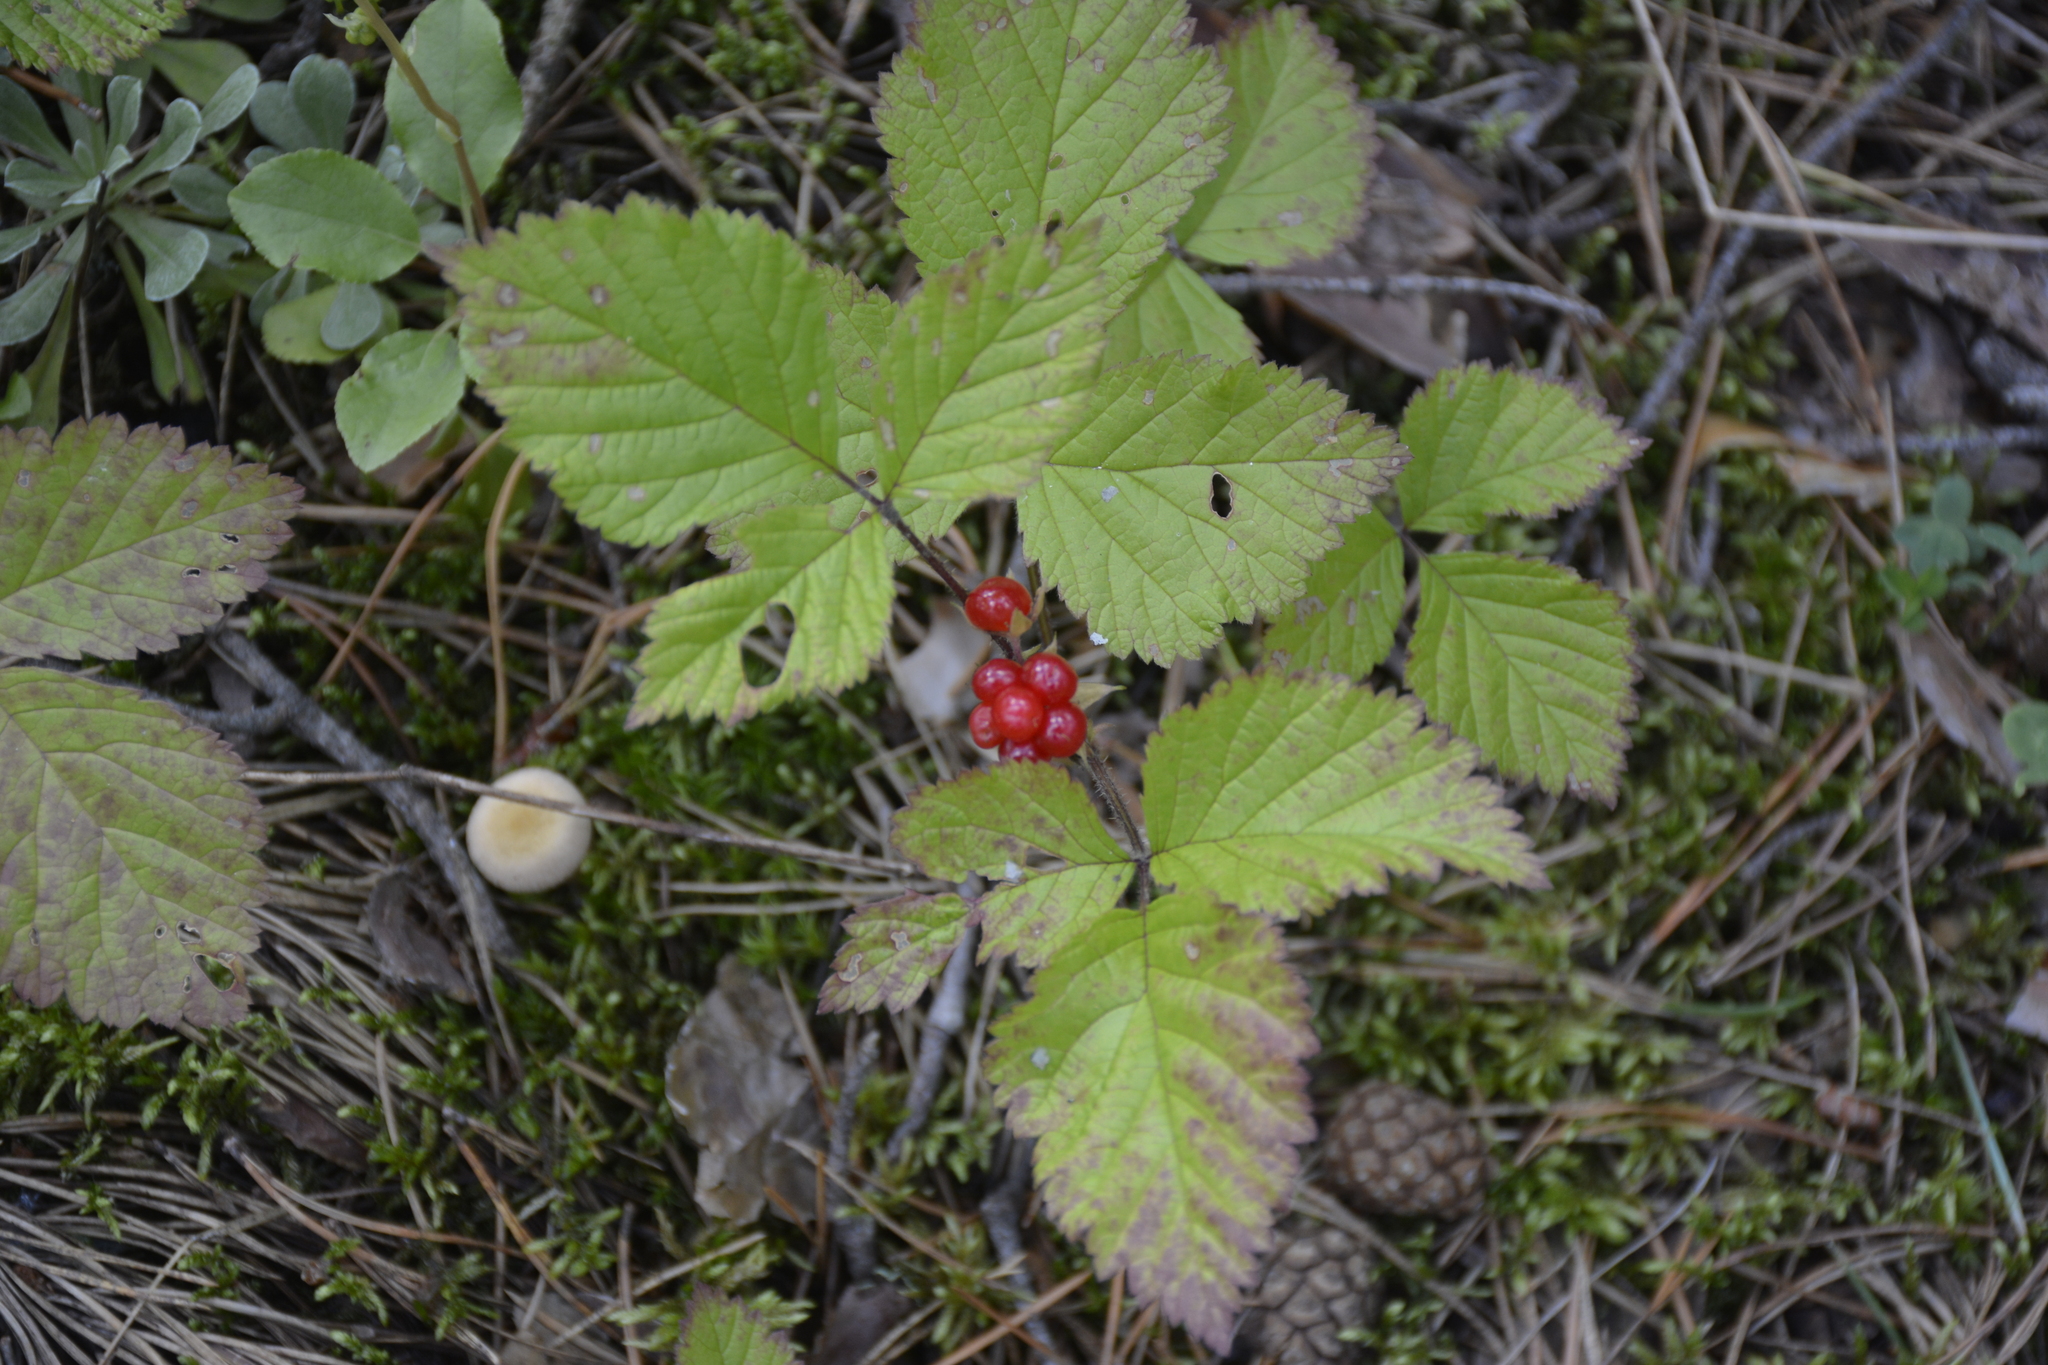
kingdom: Plantae
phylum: Tracheophyta
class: Magnoliopsida
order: Rosales
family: Rosaceae
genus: Rubus
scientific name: Rubus saxatilis
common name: Stone bramble
